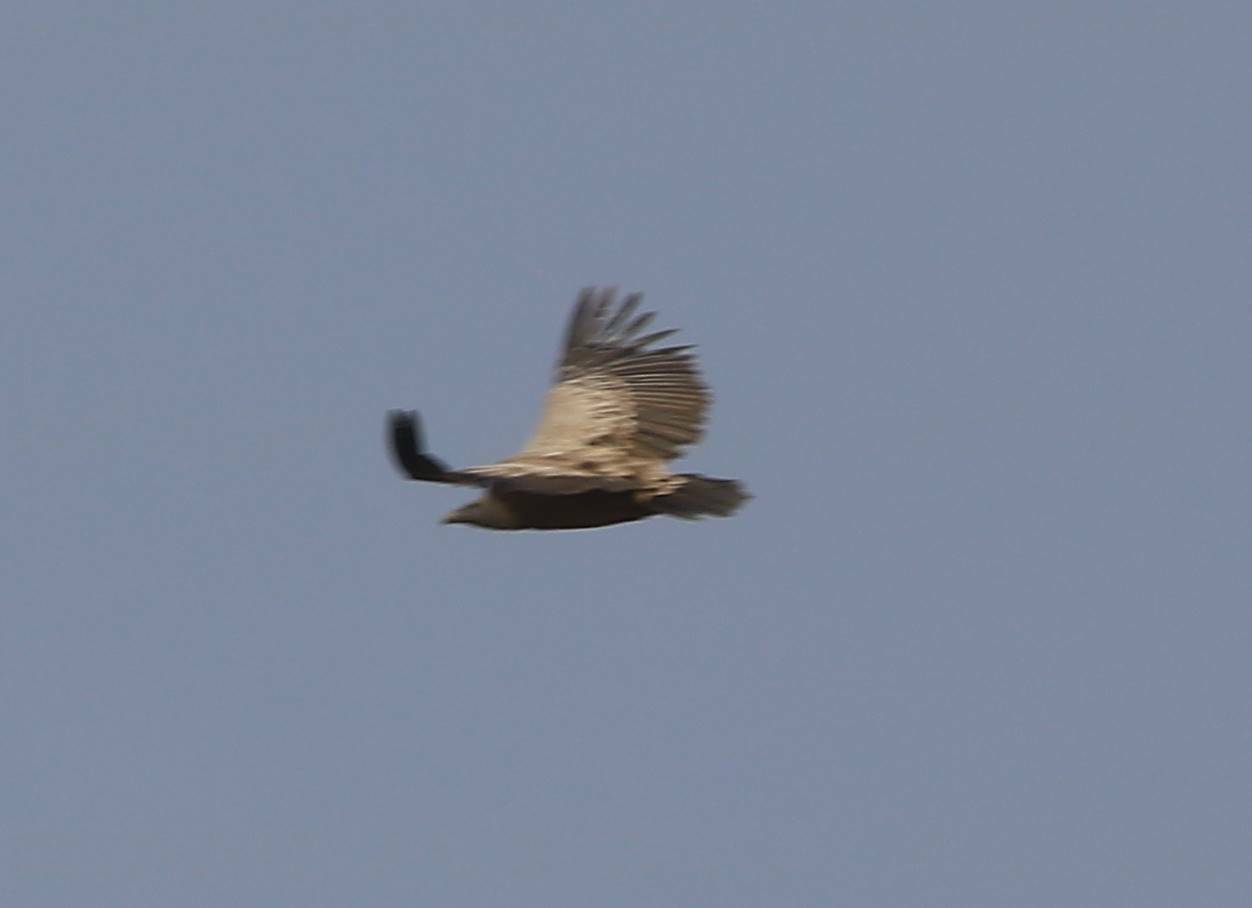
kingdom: Animalia
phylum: Chordata
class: Aves
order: Accipitriformes
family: Accipitridae
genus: Gyps
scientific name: Gyps fulvus
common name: Griffon vulture
